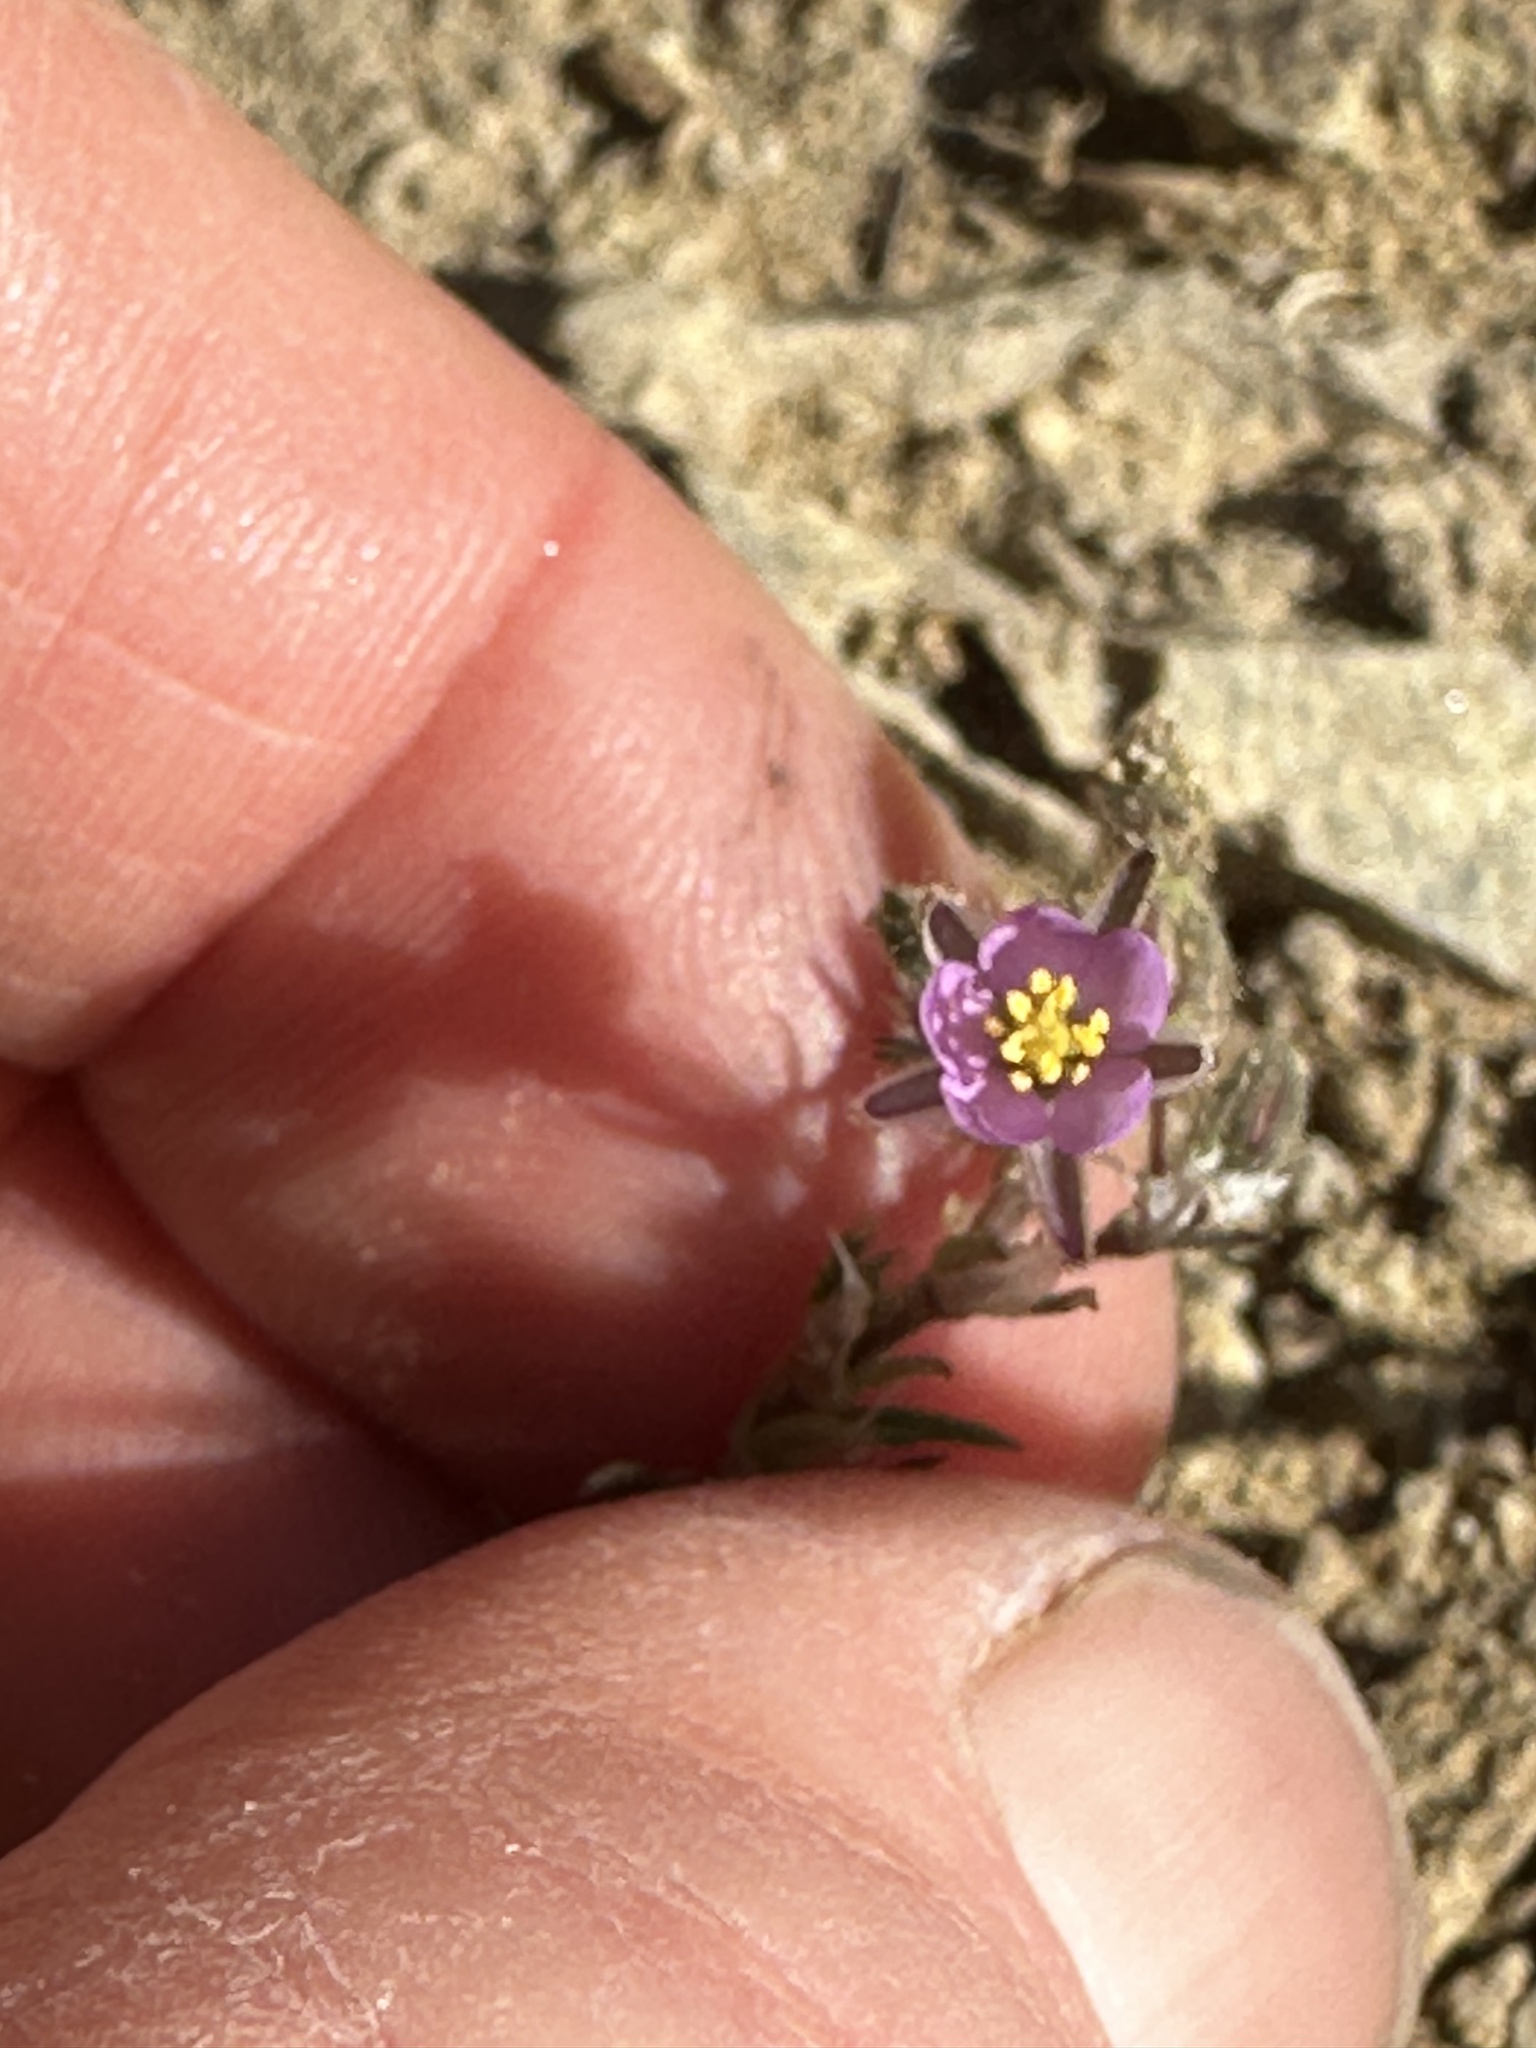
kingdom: Plantae
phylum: Tracheophyta
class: Magnoliopsida
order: Caryophyllales
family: Caryophyllaceae
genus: Spergularia
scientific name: Spergularia rubra
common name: Red sand-spurrey
